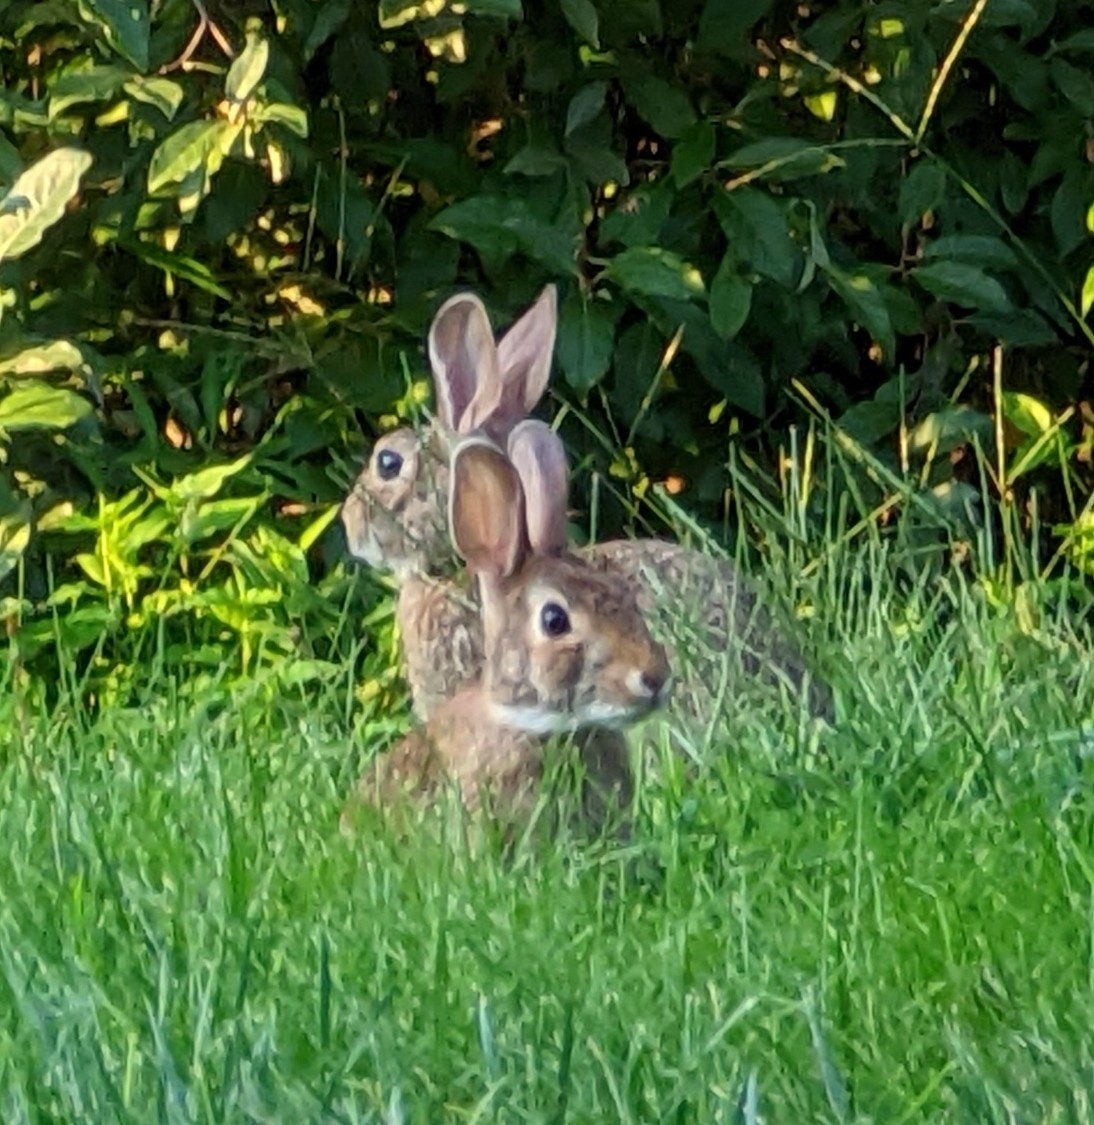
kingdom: Animalia
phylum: Chordata
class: Mammalia
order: Lagomorpha
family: Leporidae
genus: Sylvilagus
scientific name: Sylvilagus floridanus
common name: Eastern cottontail
